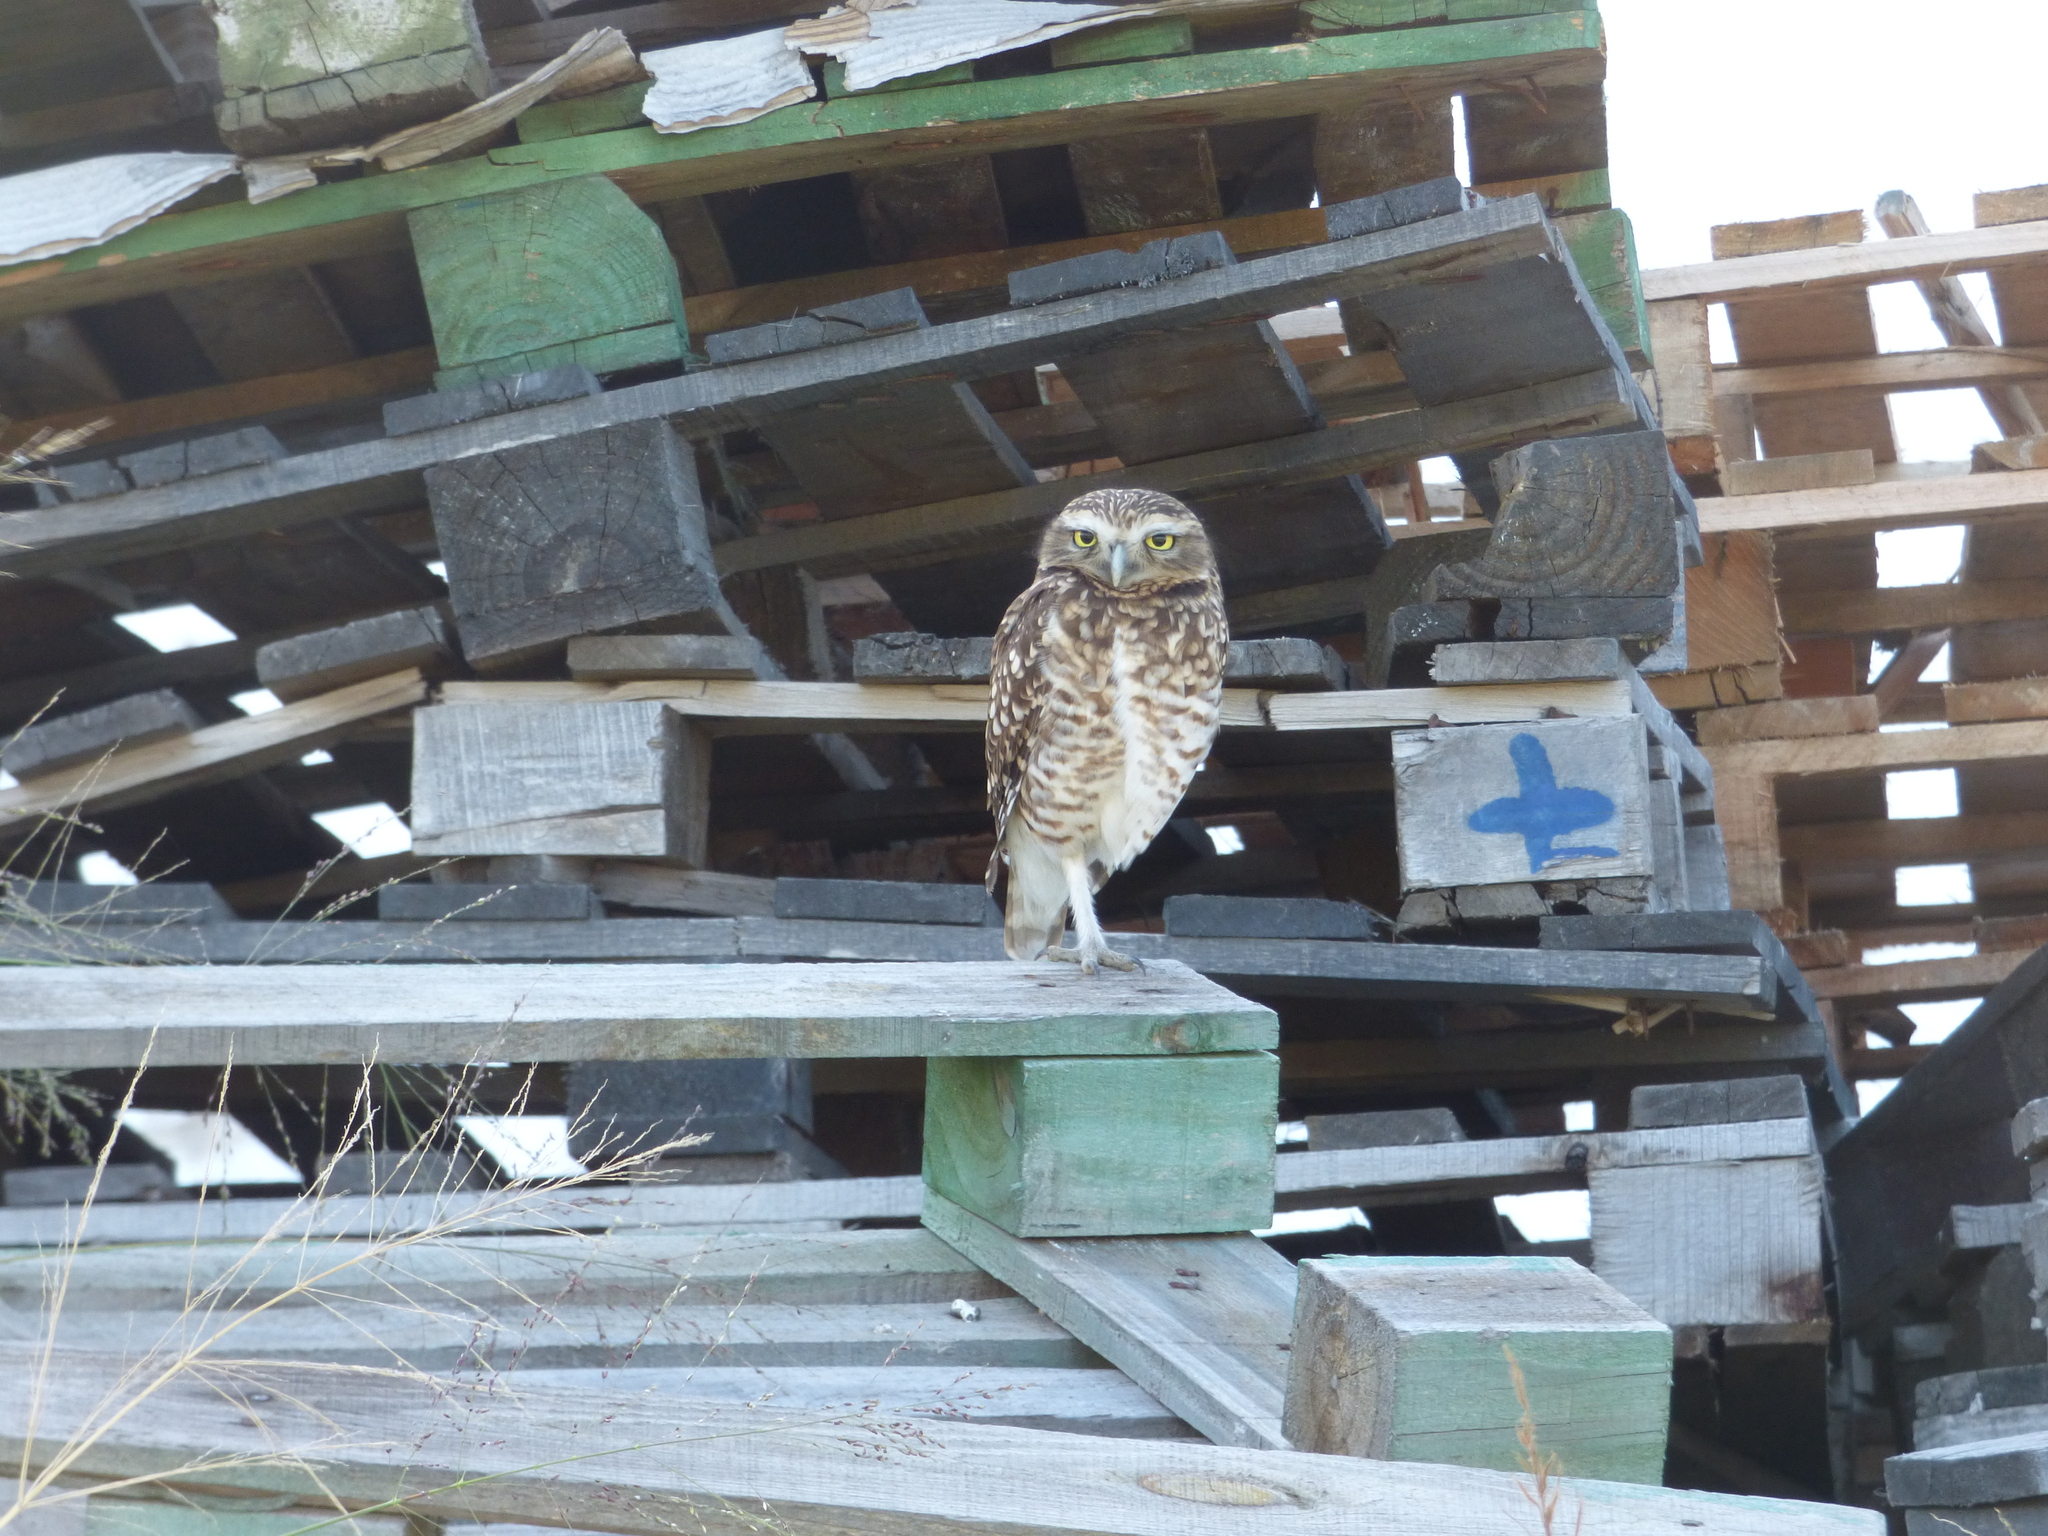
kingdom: Animalia
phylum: Chordata
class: Aves
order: Strigiformes
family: Strigidae
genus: Athene
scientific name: Athene cunicularia
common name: Burrowing owl
